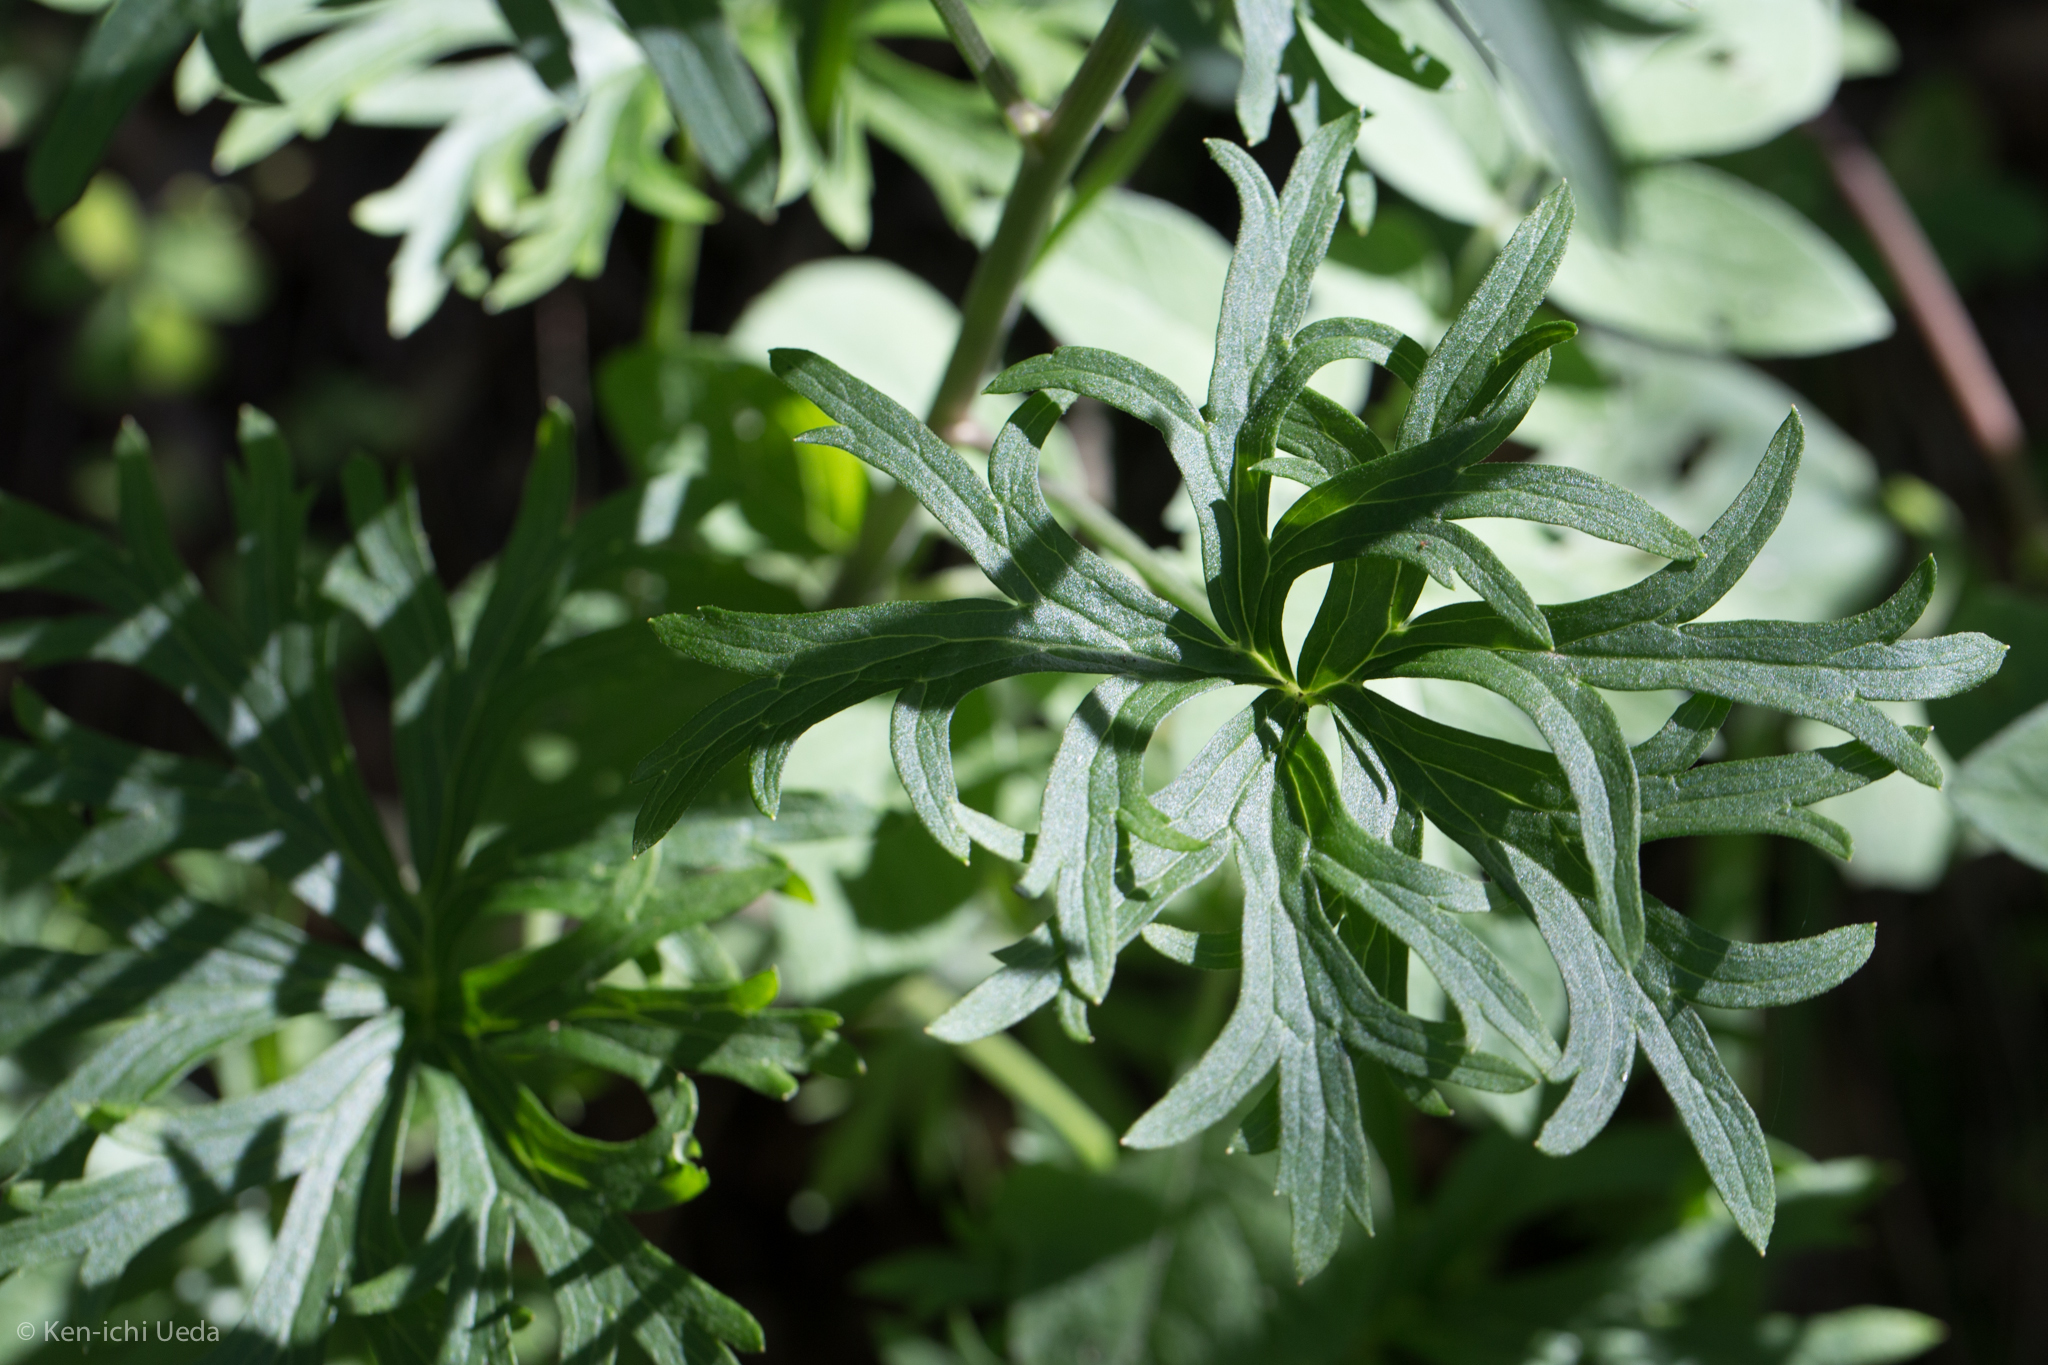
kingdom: Plantae
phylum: Tracheophyta
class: Magnoliopsida
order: Ranunculales
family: Ranunculaceae
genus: Delphinium
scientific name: Delphinium scopulorum
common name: Rocky mountain larkspur
